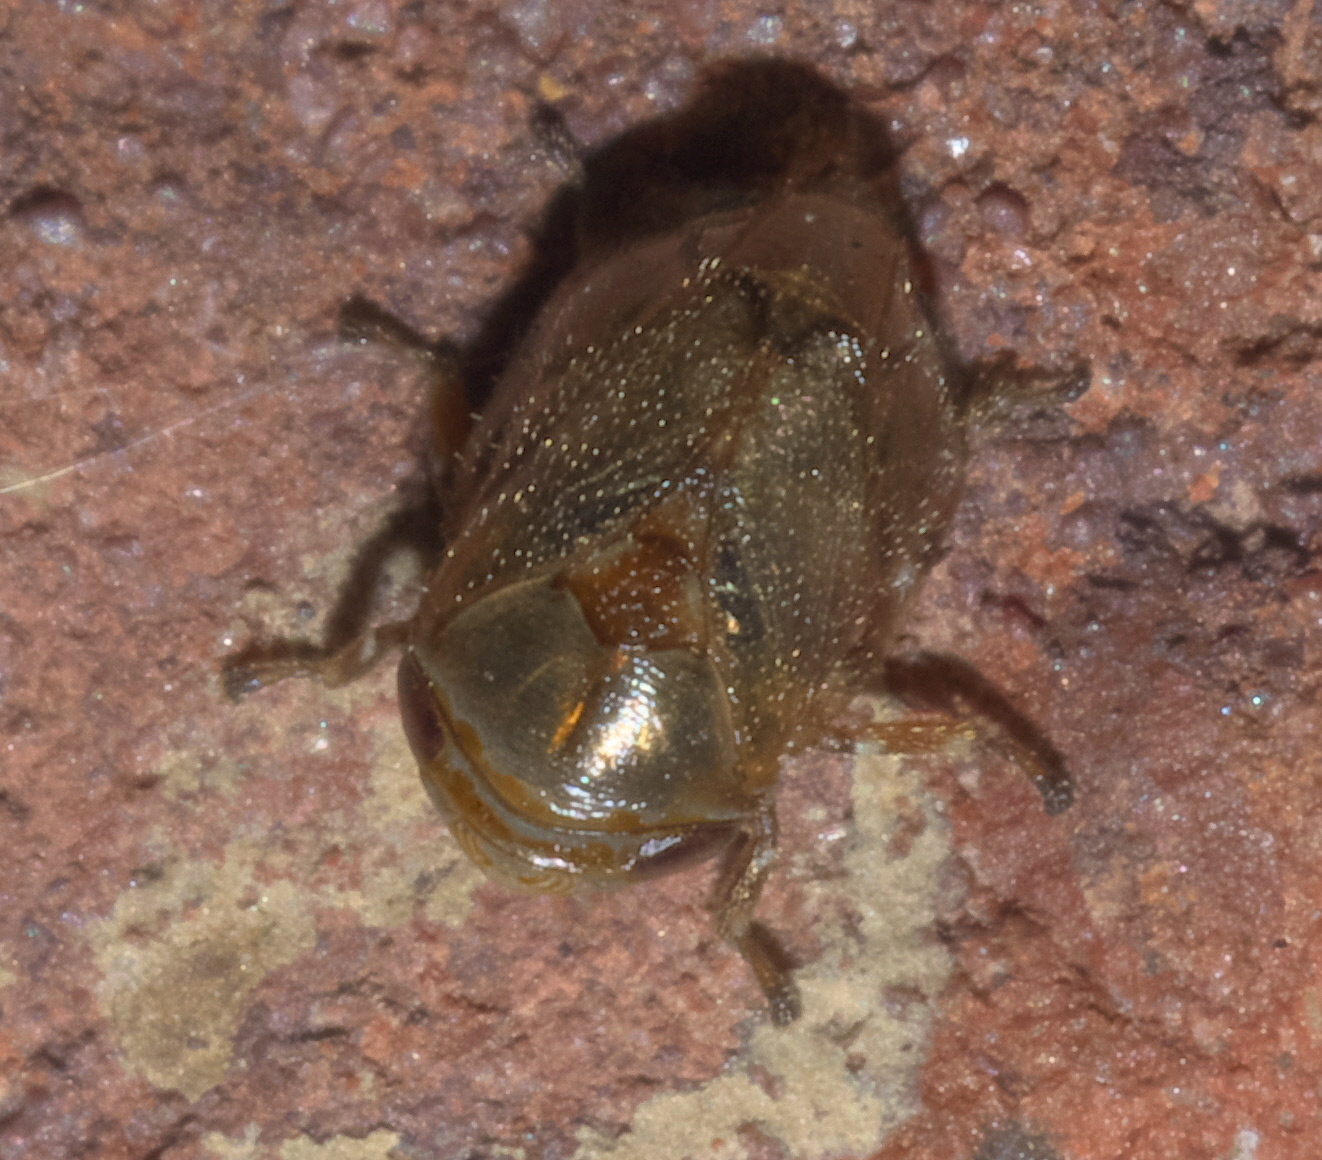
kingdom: Animalia
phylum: Arthropoda
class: Insecta
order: Hemiptera
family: Clastopteridae
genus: Clastoptera
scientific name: Clastoptera xanthocephala
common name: Sunflower spittlebug
